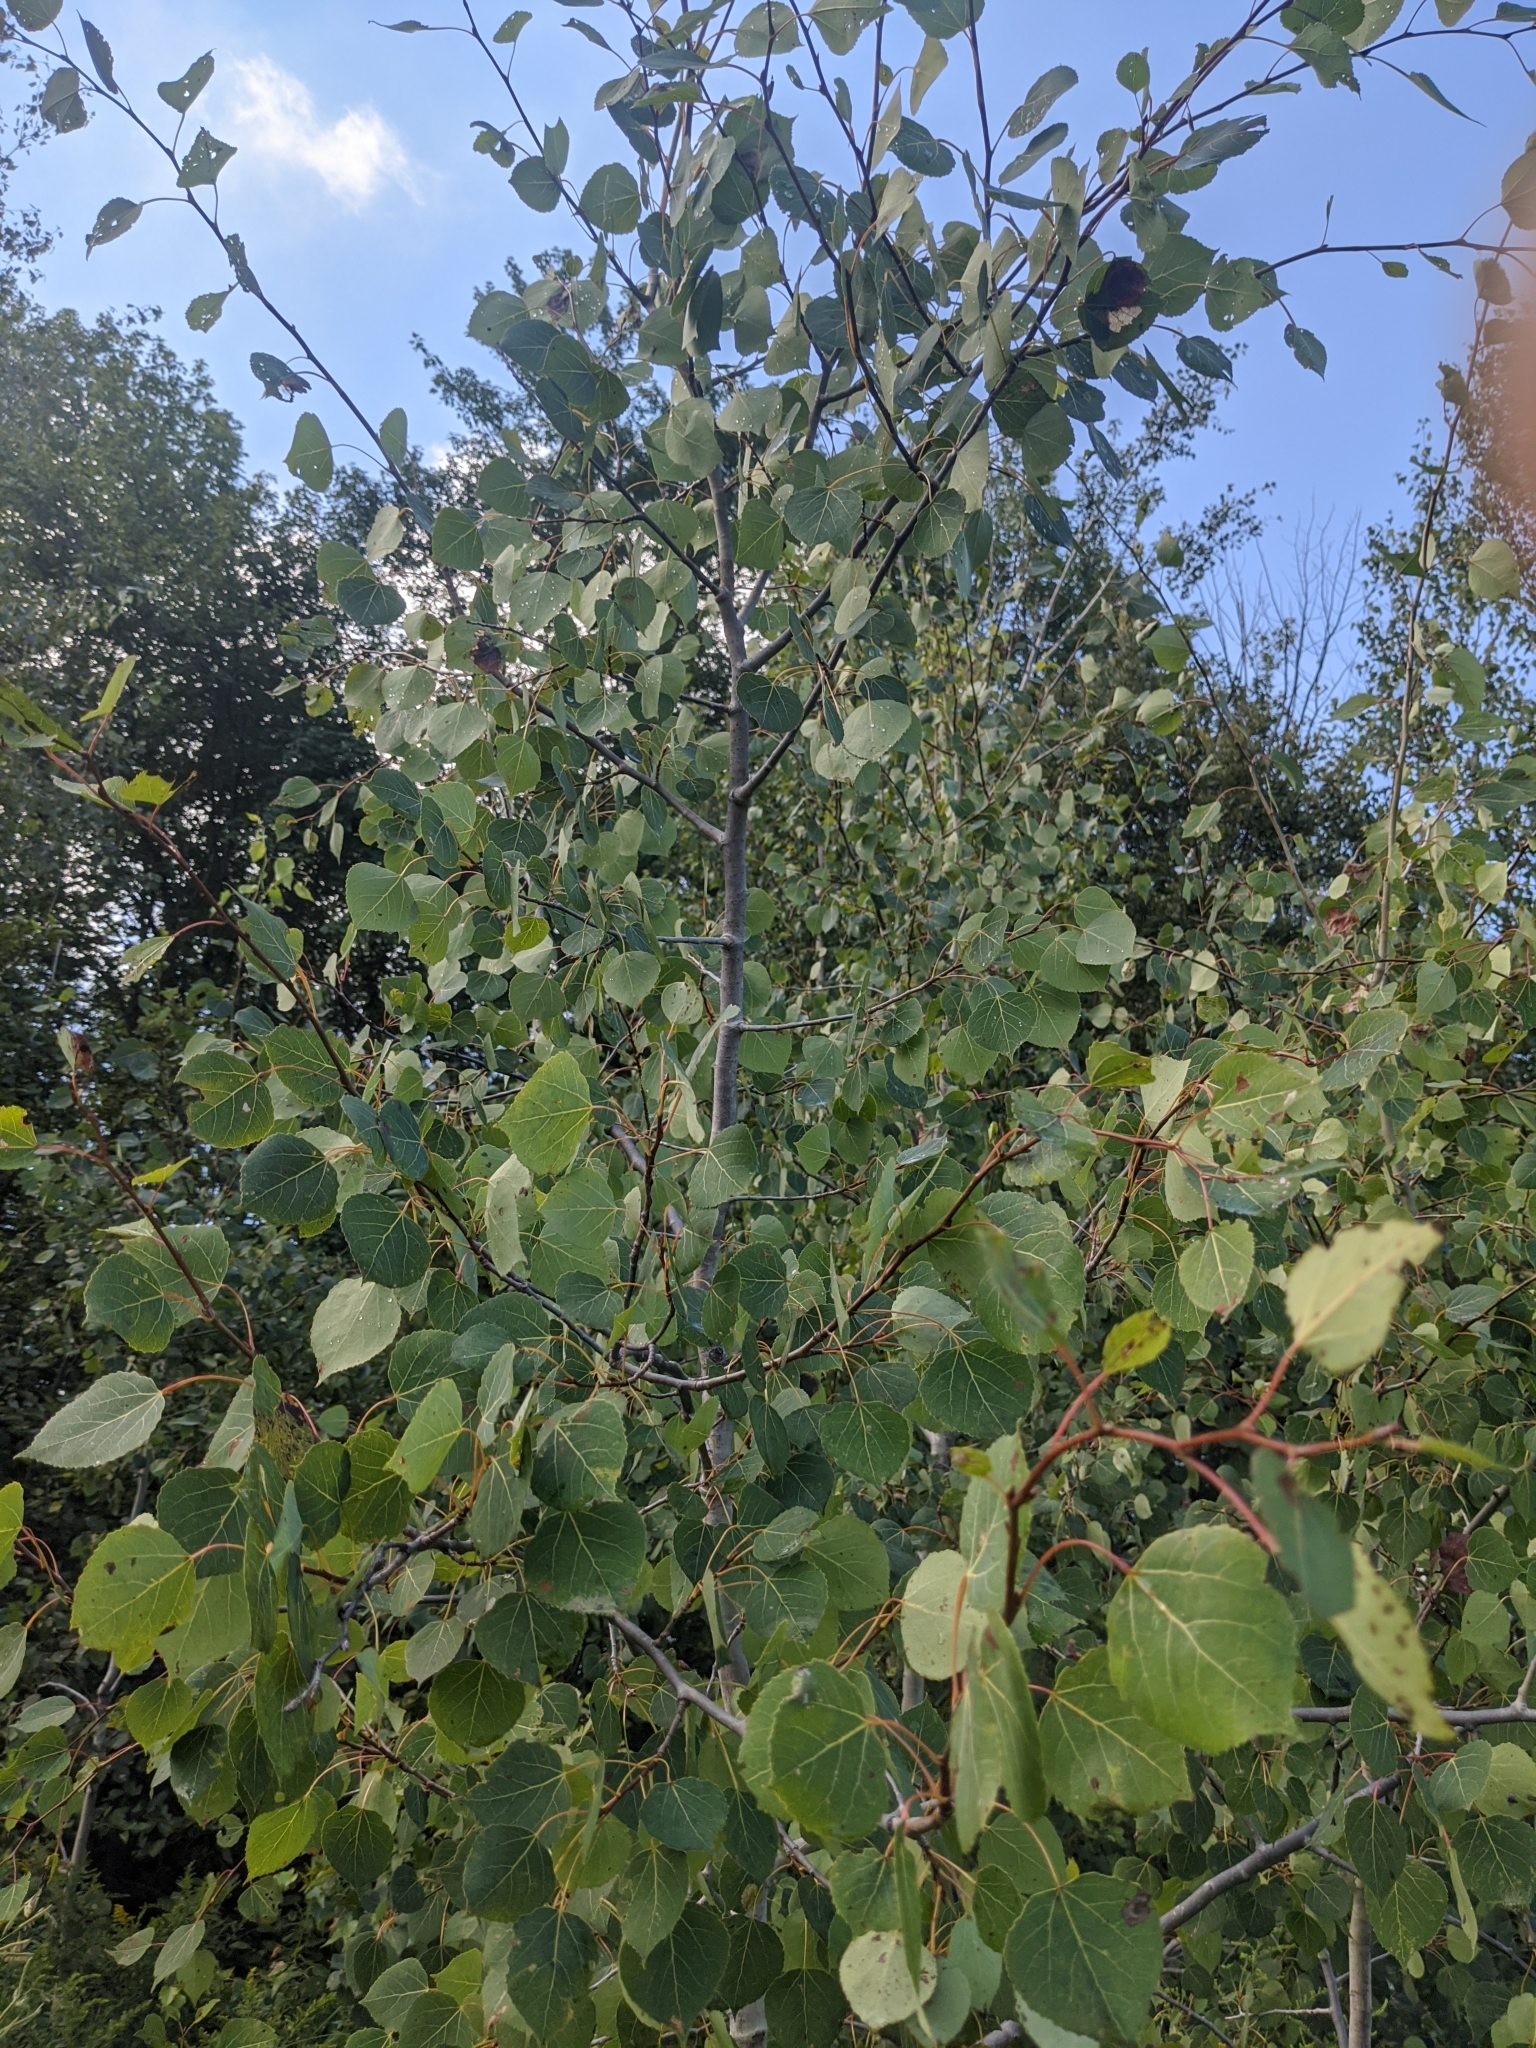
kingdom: Plantae
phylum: Tracheophyta
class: Magnoliopsida
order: Malpighiales
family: Salicaceae
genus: Populus
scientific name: Populus tremuloides
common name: Quaking aspen
